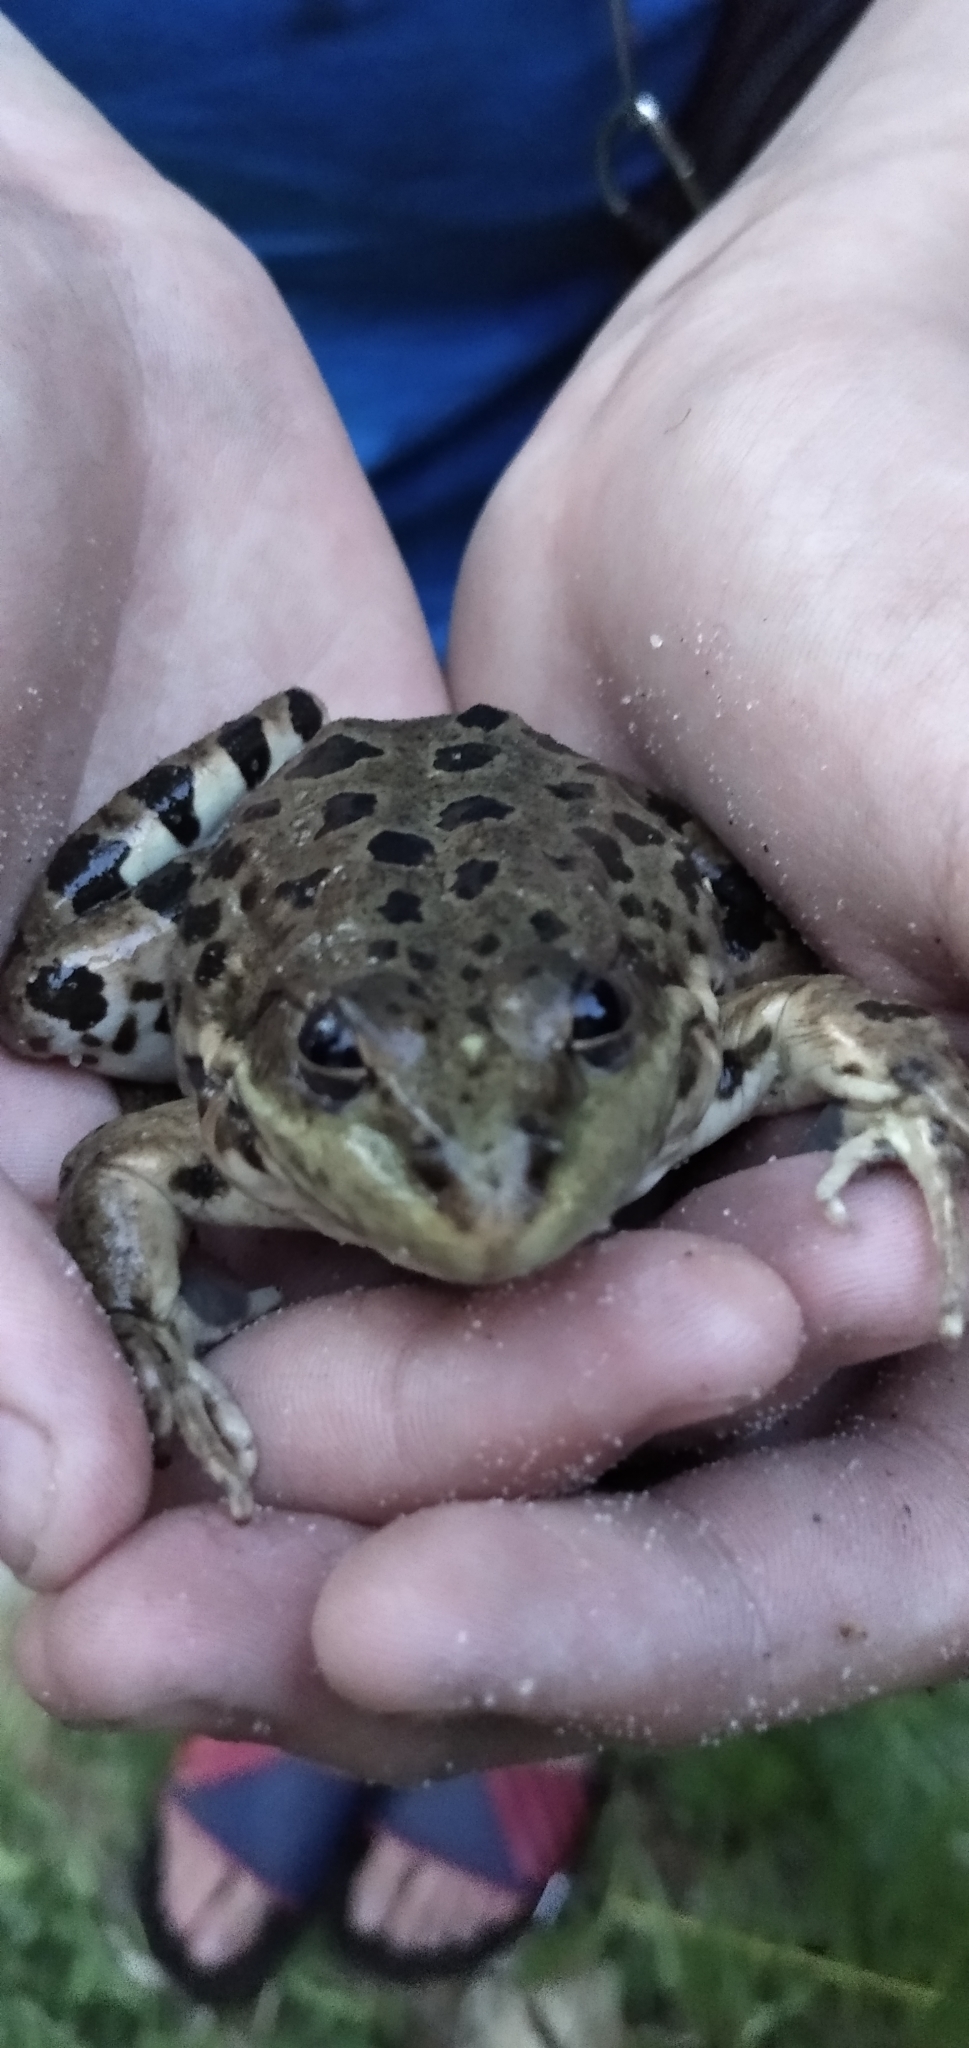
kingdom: Animalia
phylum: Chordata
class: Amphibia
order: Anura
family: Ranidae
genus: Pelophylax
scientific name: Pelophylax ridibundus
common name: Marsh frog
